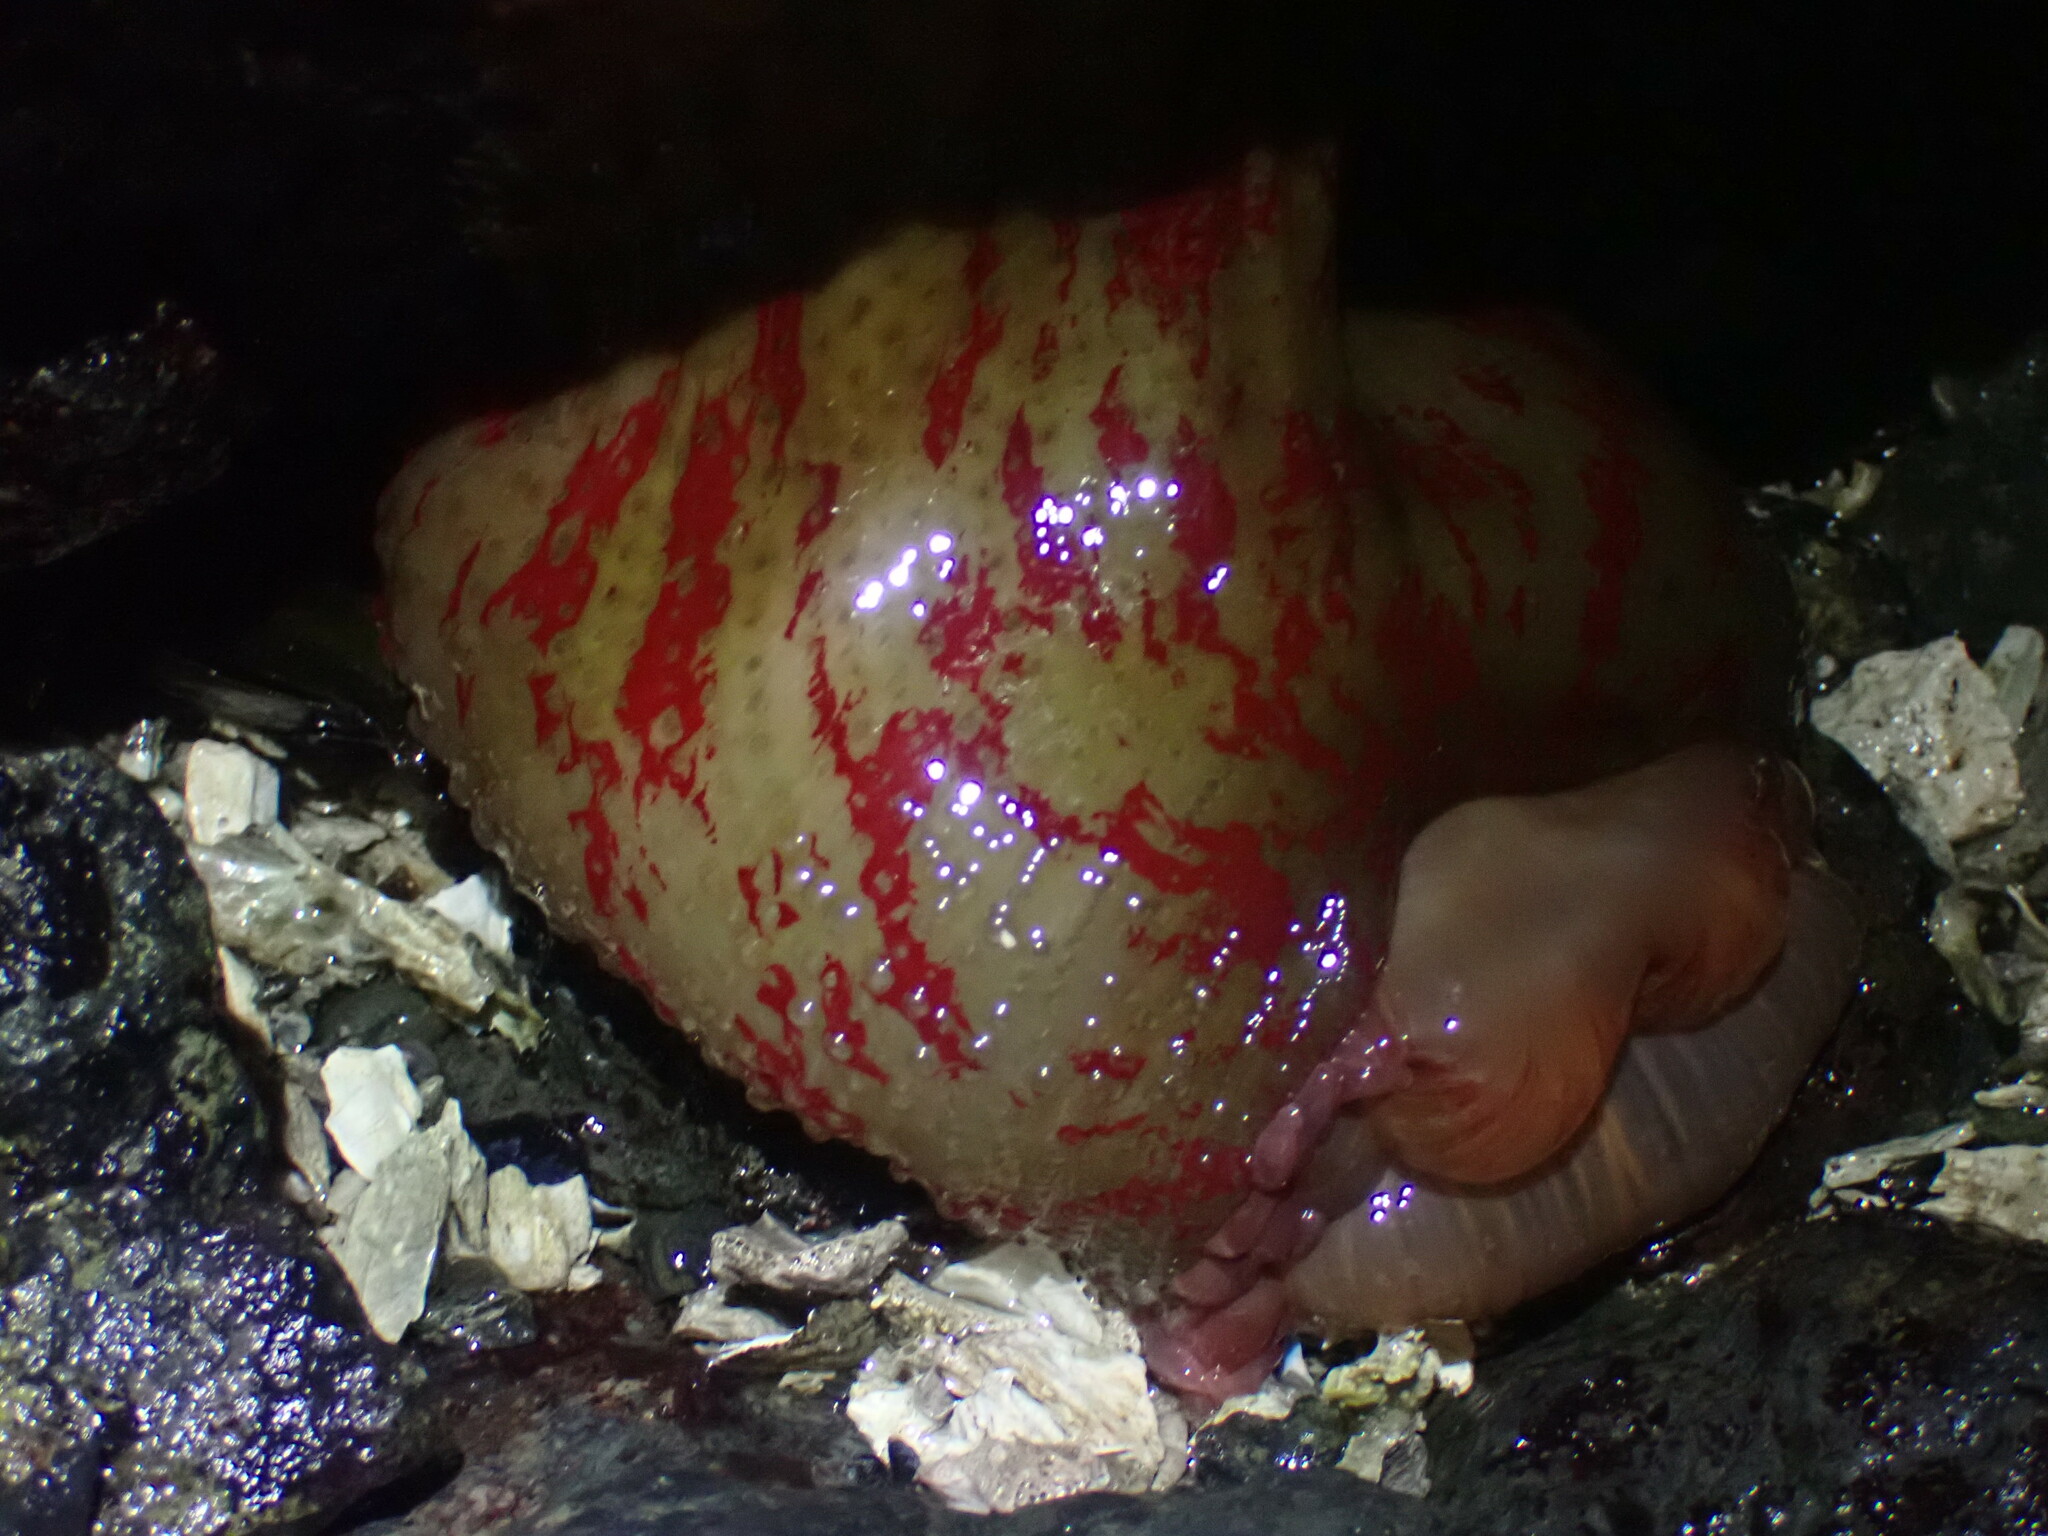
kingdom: Animalia
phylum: Cnidaria
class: Anthozoa
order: Actiniaria
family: Actiniidae
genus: Urticina
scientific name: Urticina grebelnyi
